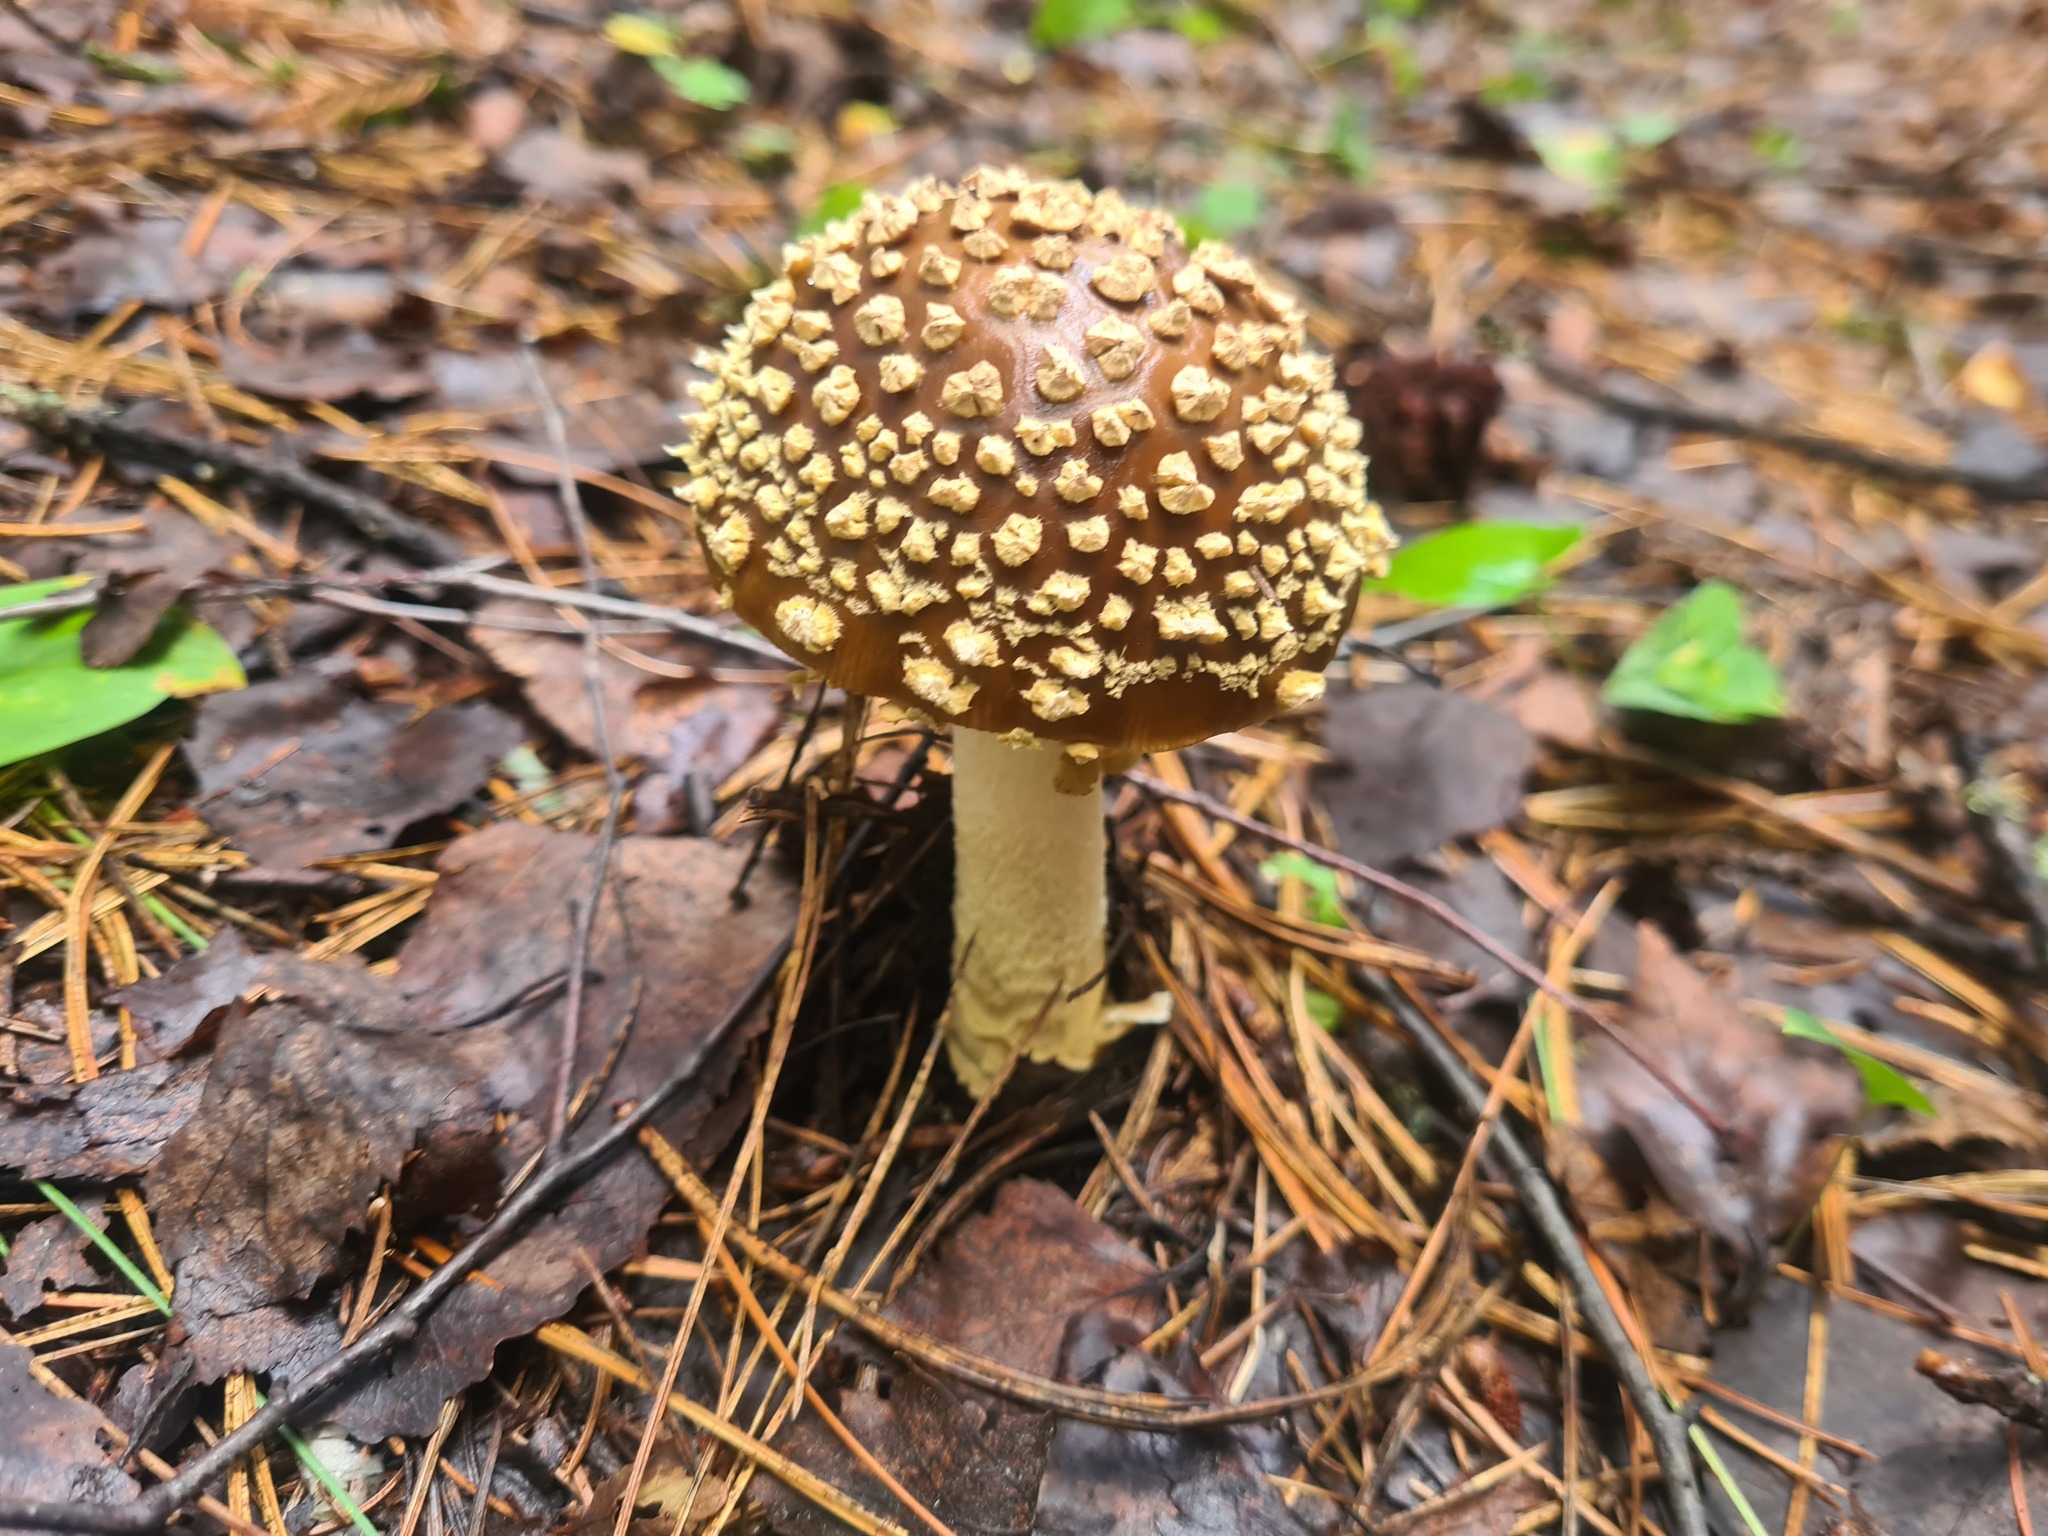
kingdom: Fungi
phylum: Basidiomycota
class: Agaricomycetes
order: Agaricales
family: Amanitaceae
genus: Amanita
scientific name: Amanita regalis
